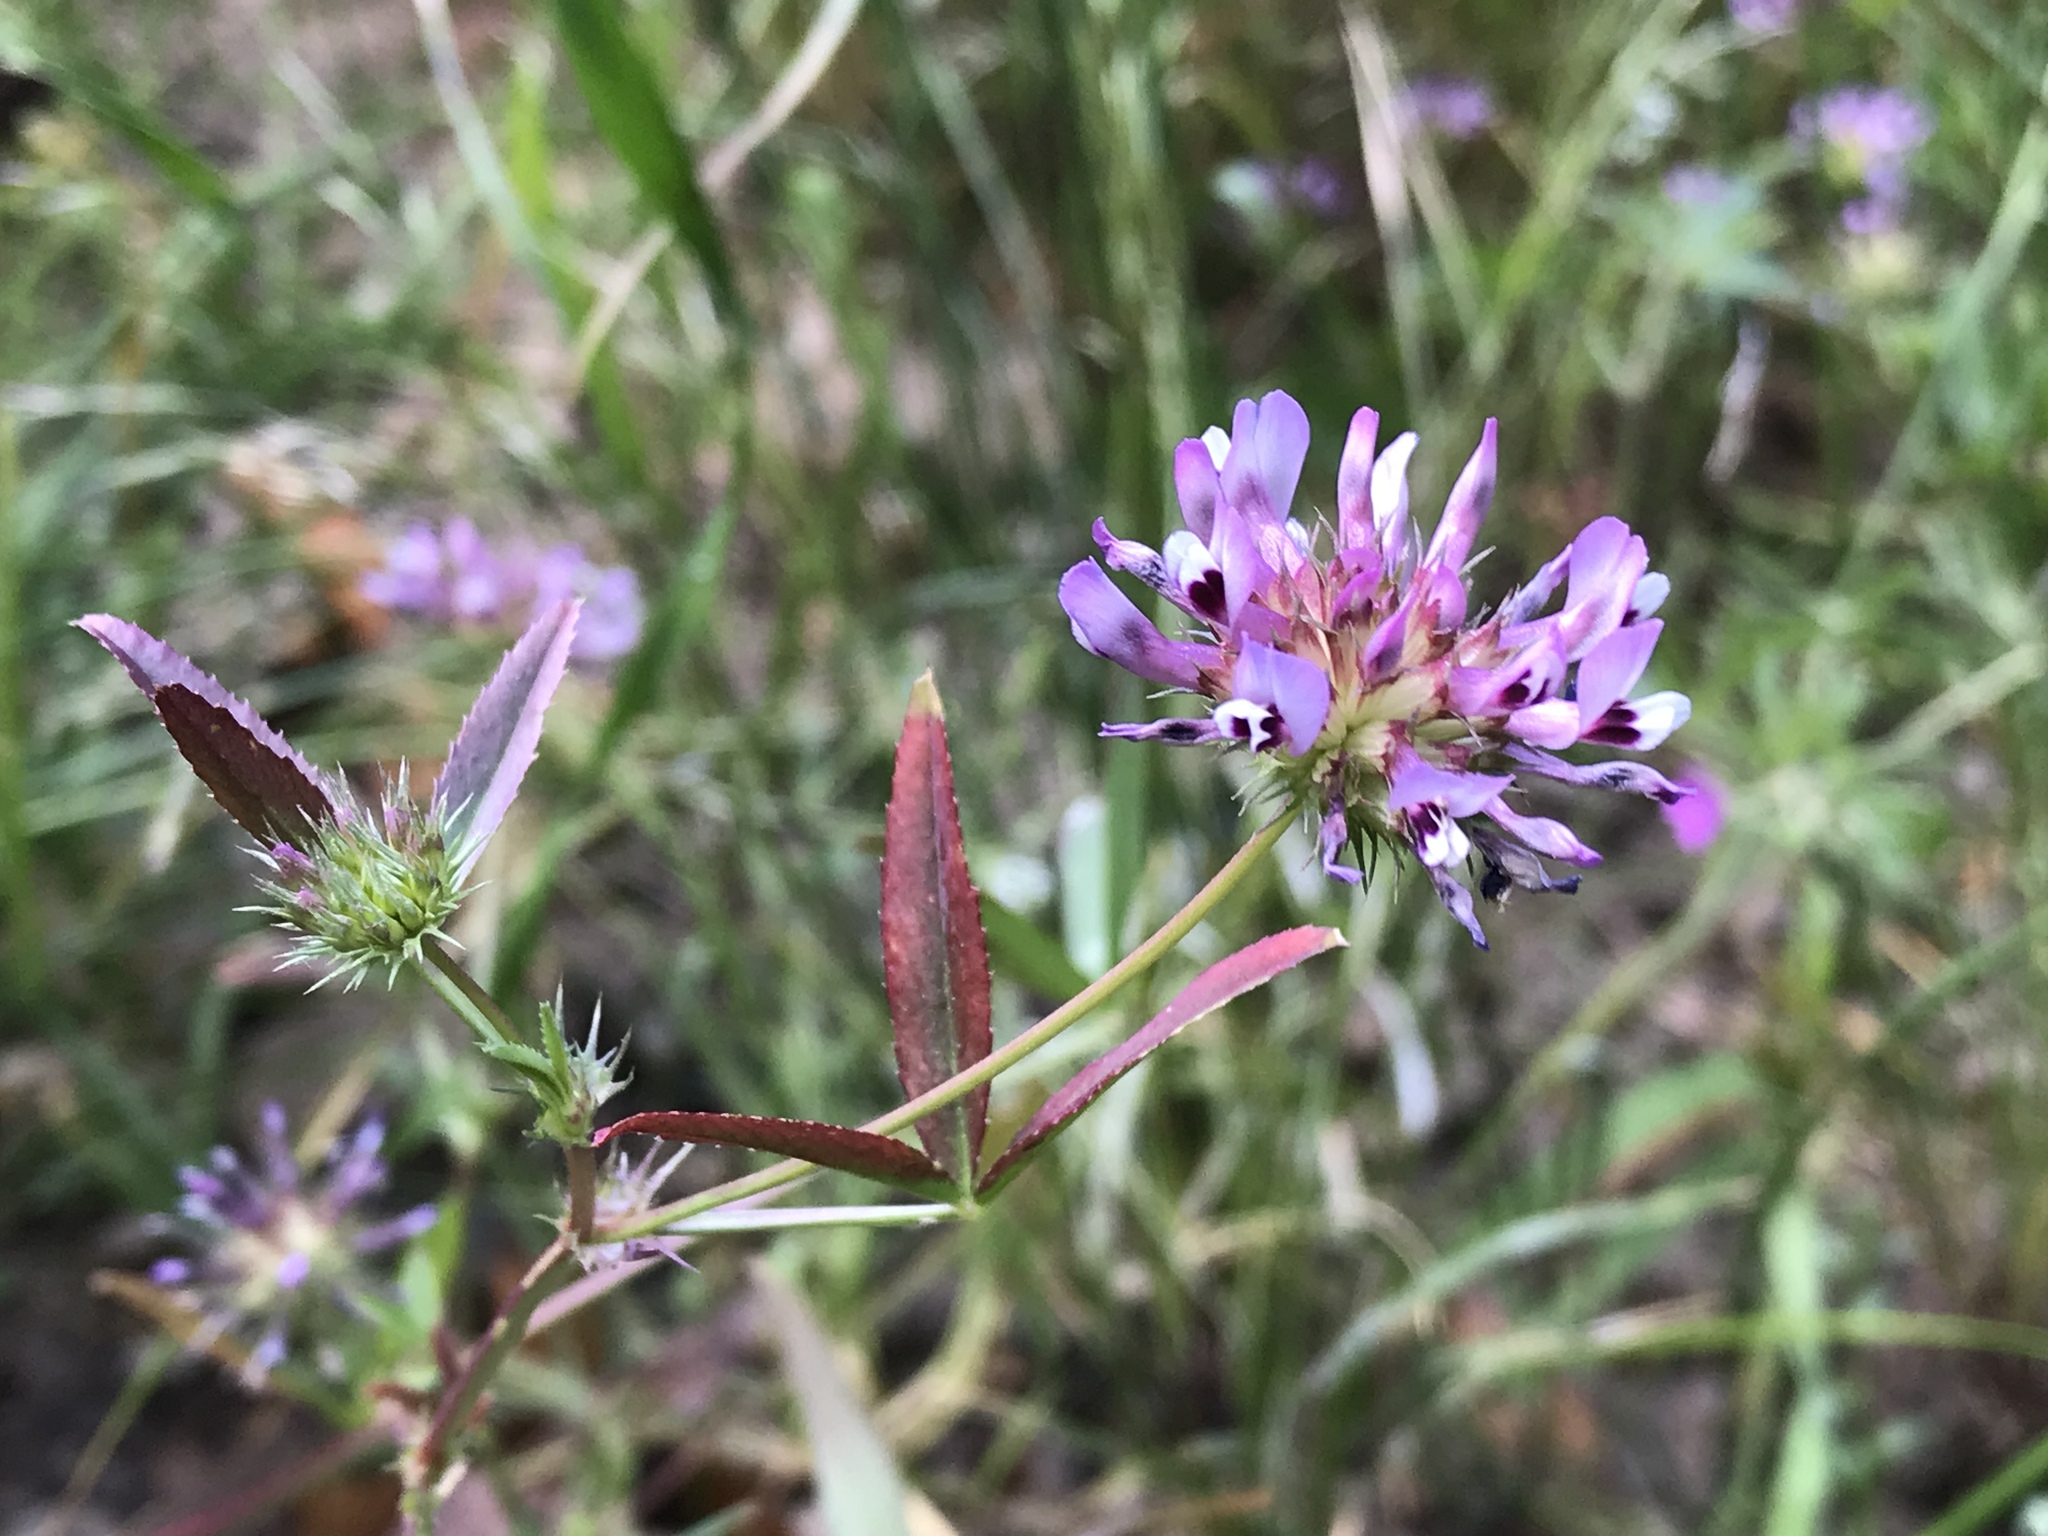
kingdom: Plantae
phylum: Tracheophyta
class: Magnoliopsida
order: Fabales
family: Fabaceae
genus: Trifolium
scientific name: Trifolium willdenovii
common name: Tomcat clover
